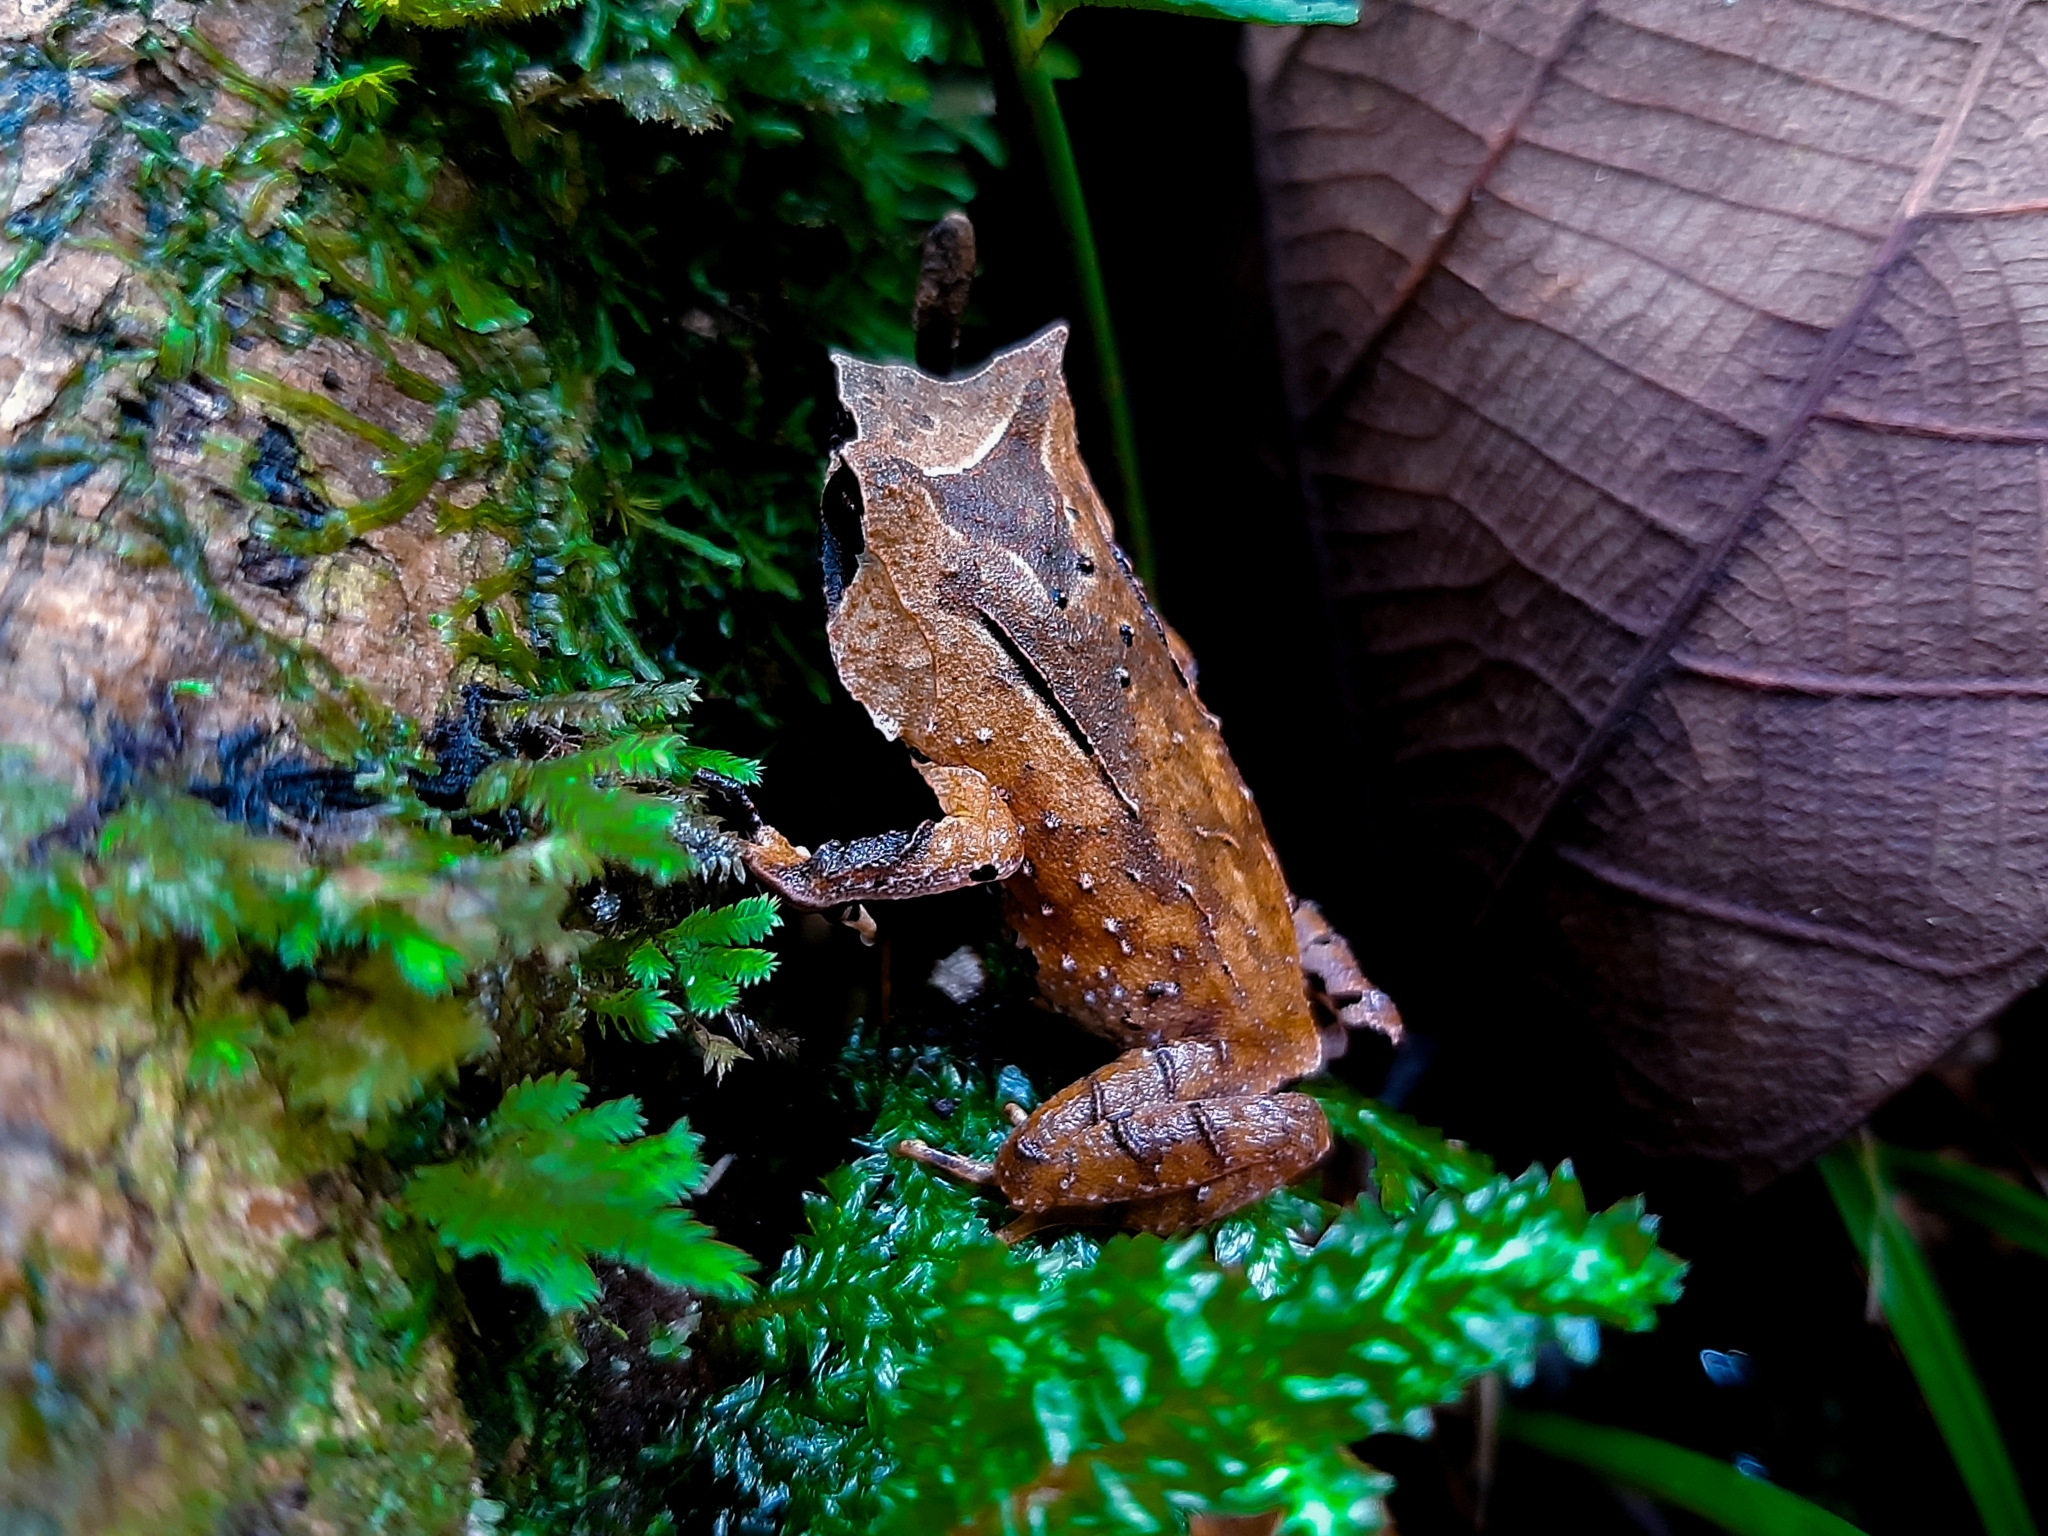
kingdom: Animalia
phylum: Chordata
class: Amphibia
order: Anura
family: Megophryidae
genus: Megophrys
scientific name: Megophrys montana
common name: Asian spadefoot toad
